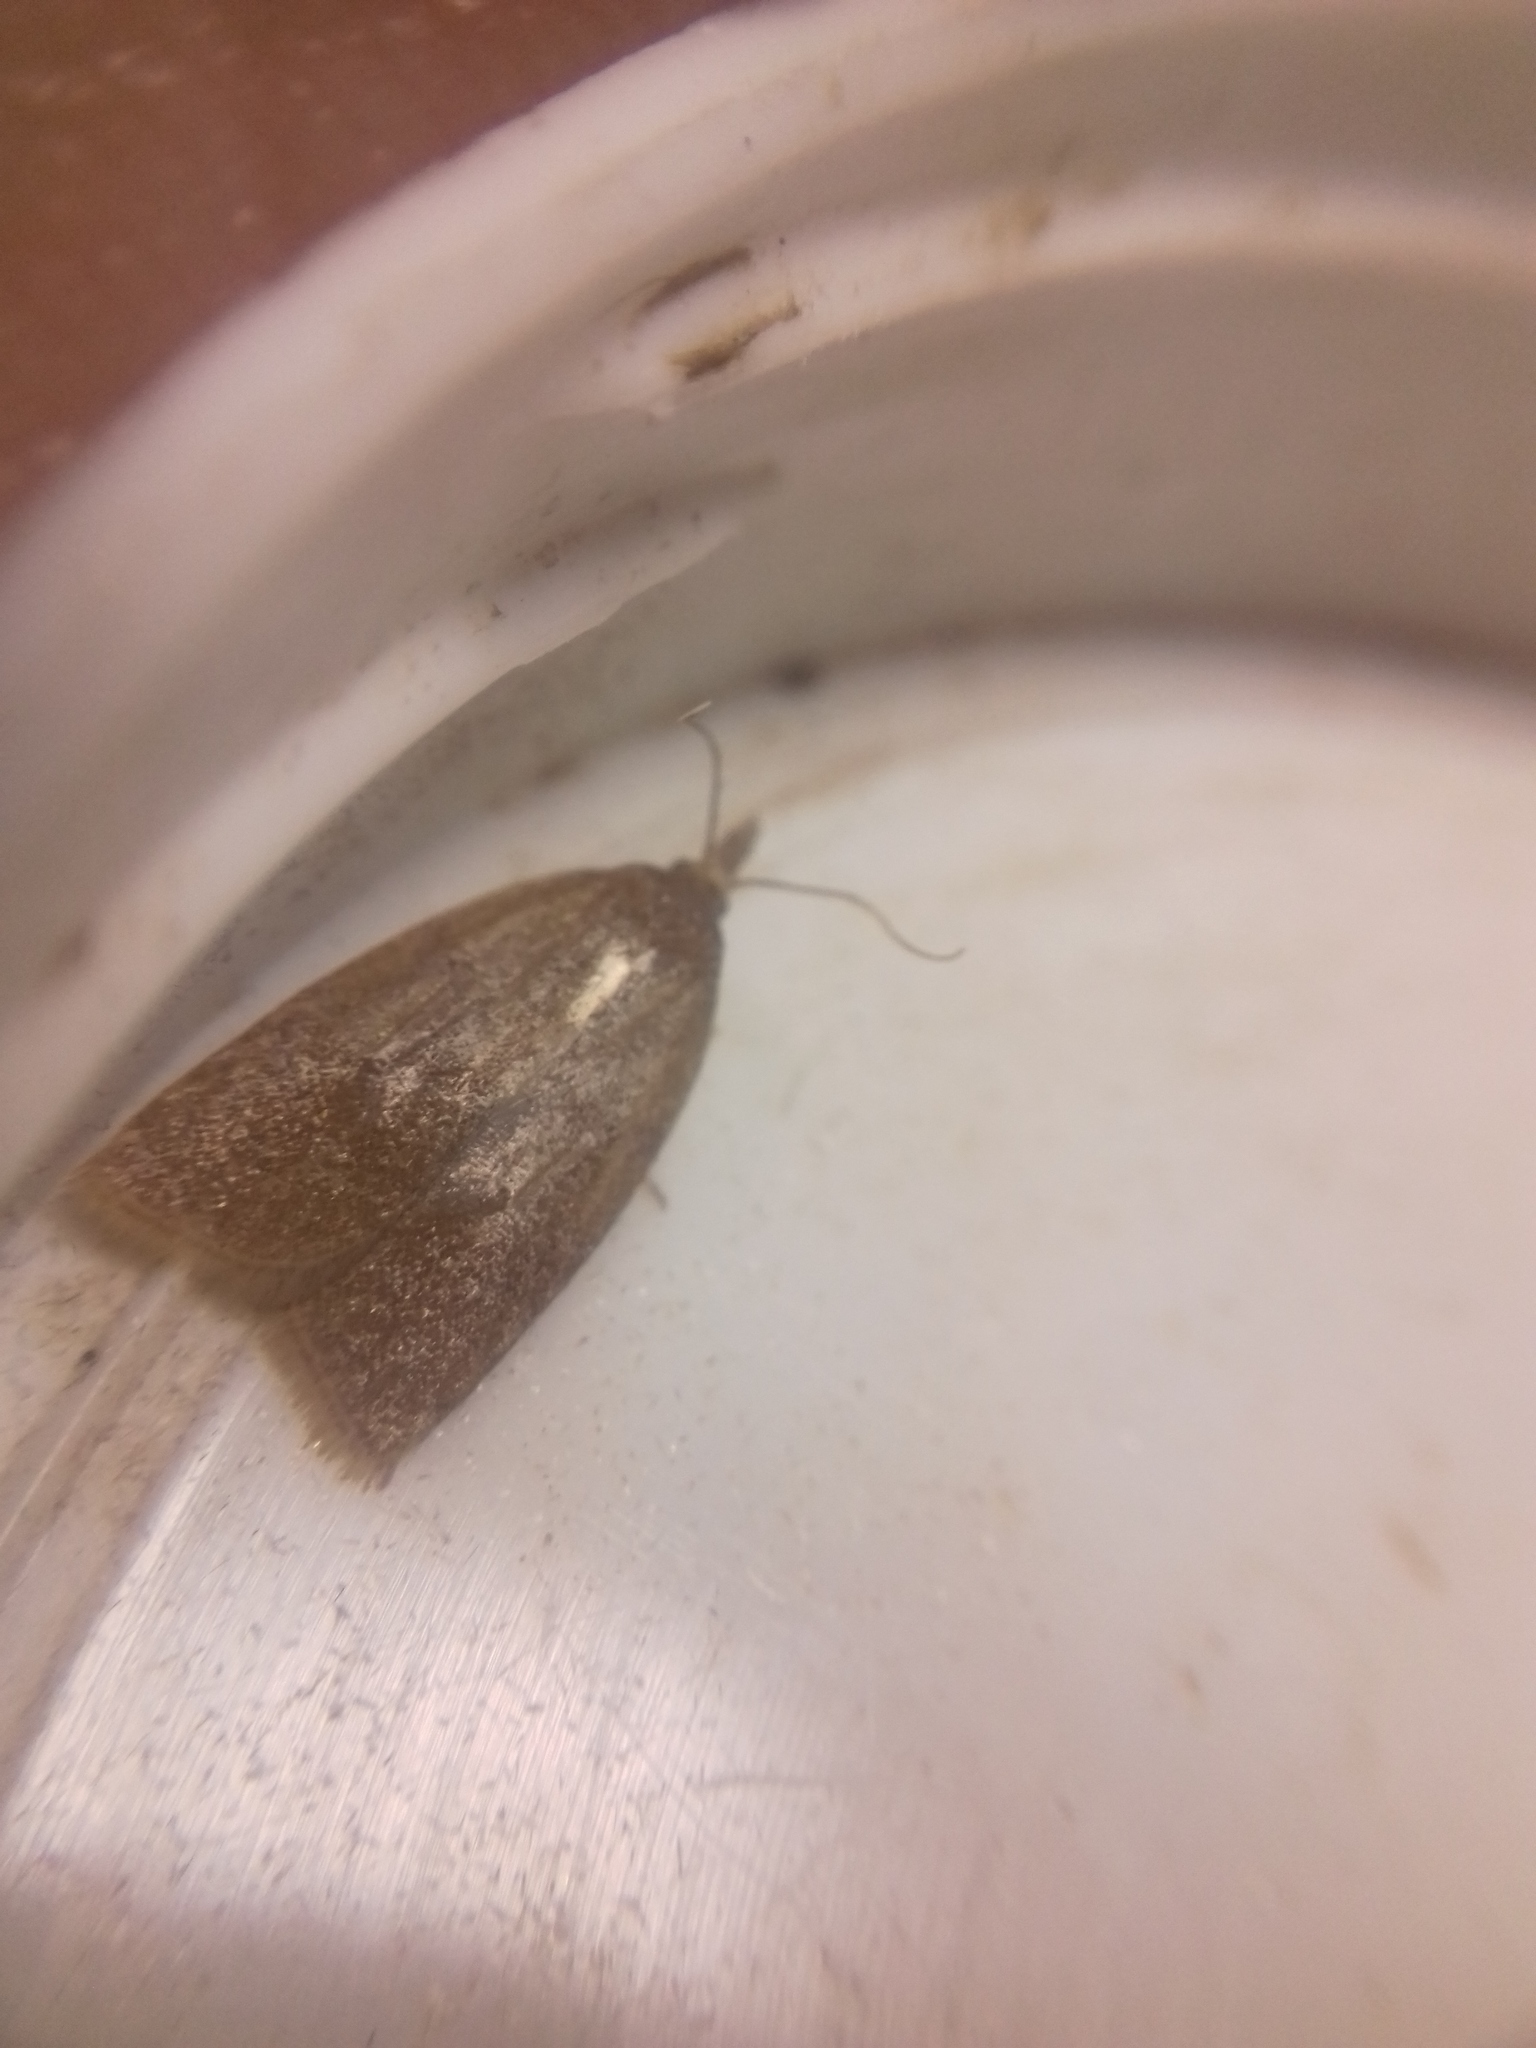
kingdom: Animalia
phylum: Arthropoda
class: Insecta
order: Lepidoptera
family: Tortricidae
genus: Sparganothis
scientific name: Sparganothis pilleriana
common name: Vine leaf-roller tortrix, long-nosed twist
